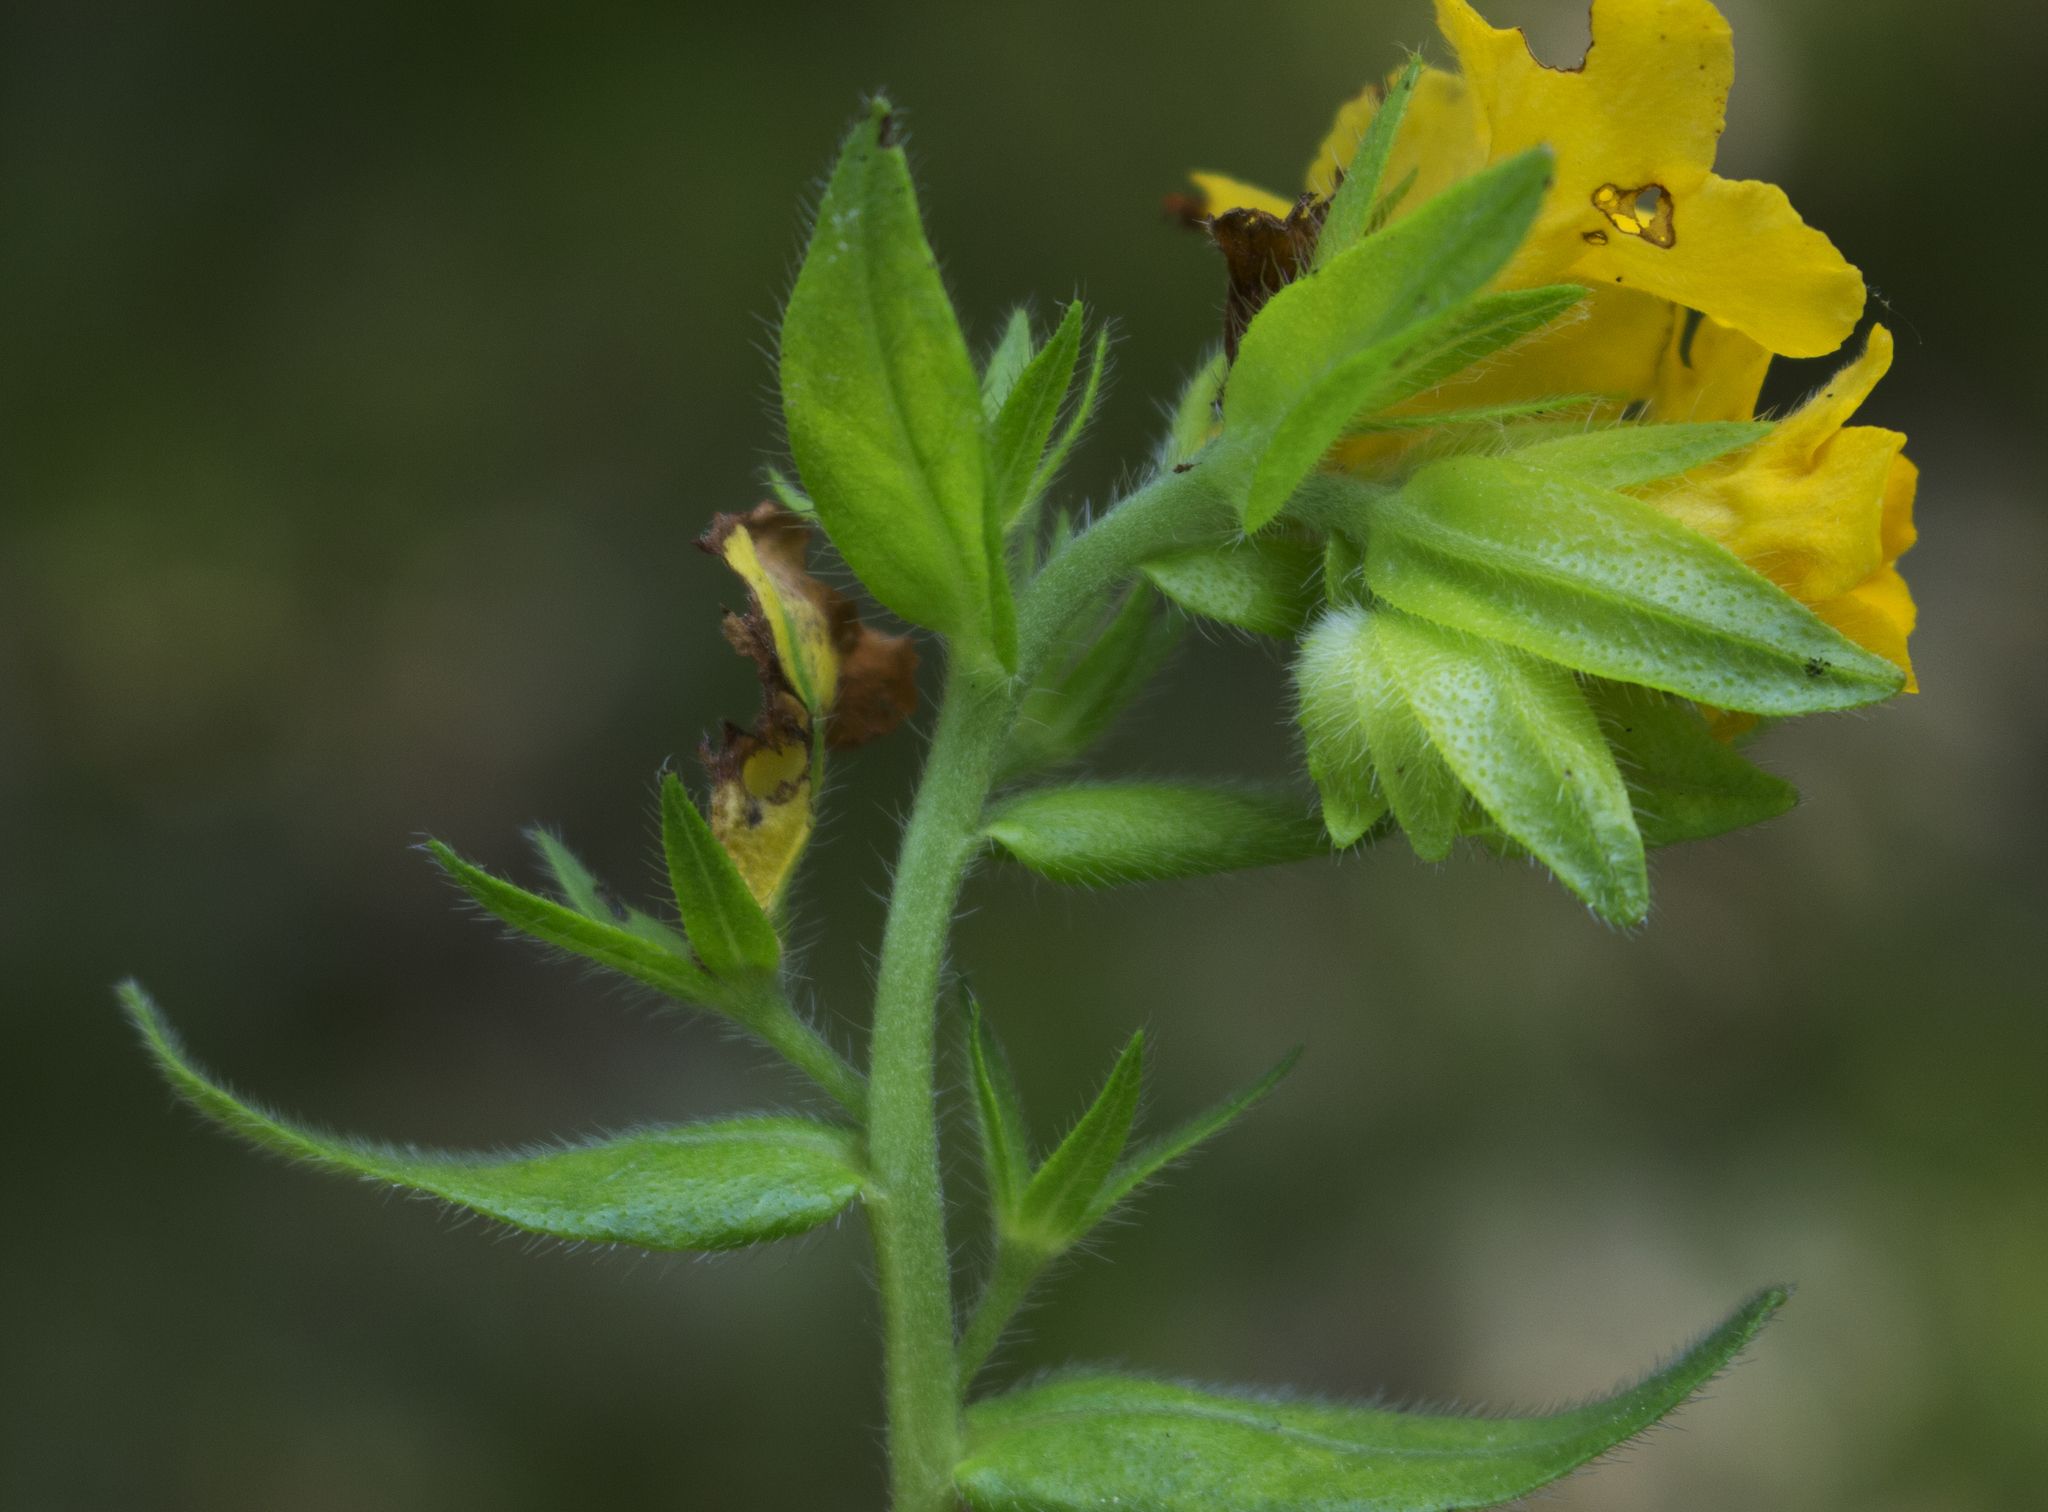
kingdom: Plantae
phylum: Tracheophyta
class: Magnoliopsida
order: Boraginales
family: Boraginaceae
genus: Lithospermum
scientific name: Lithospermum caroliniense
